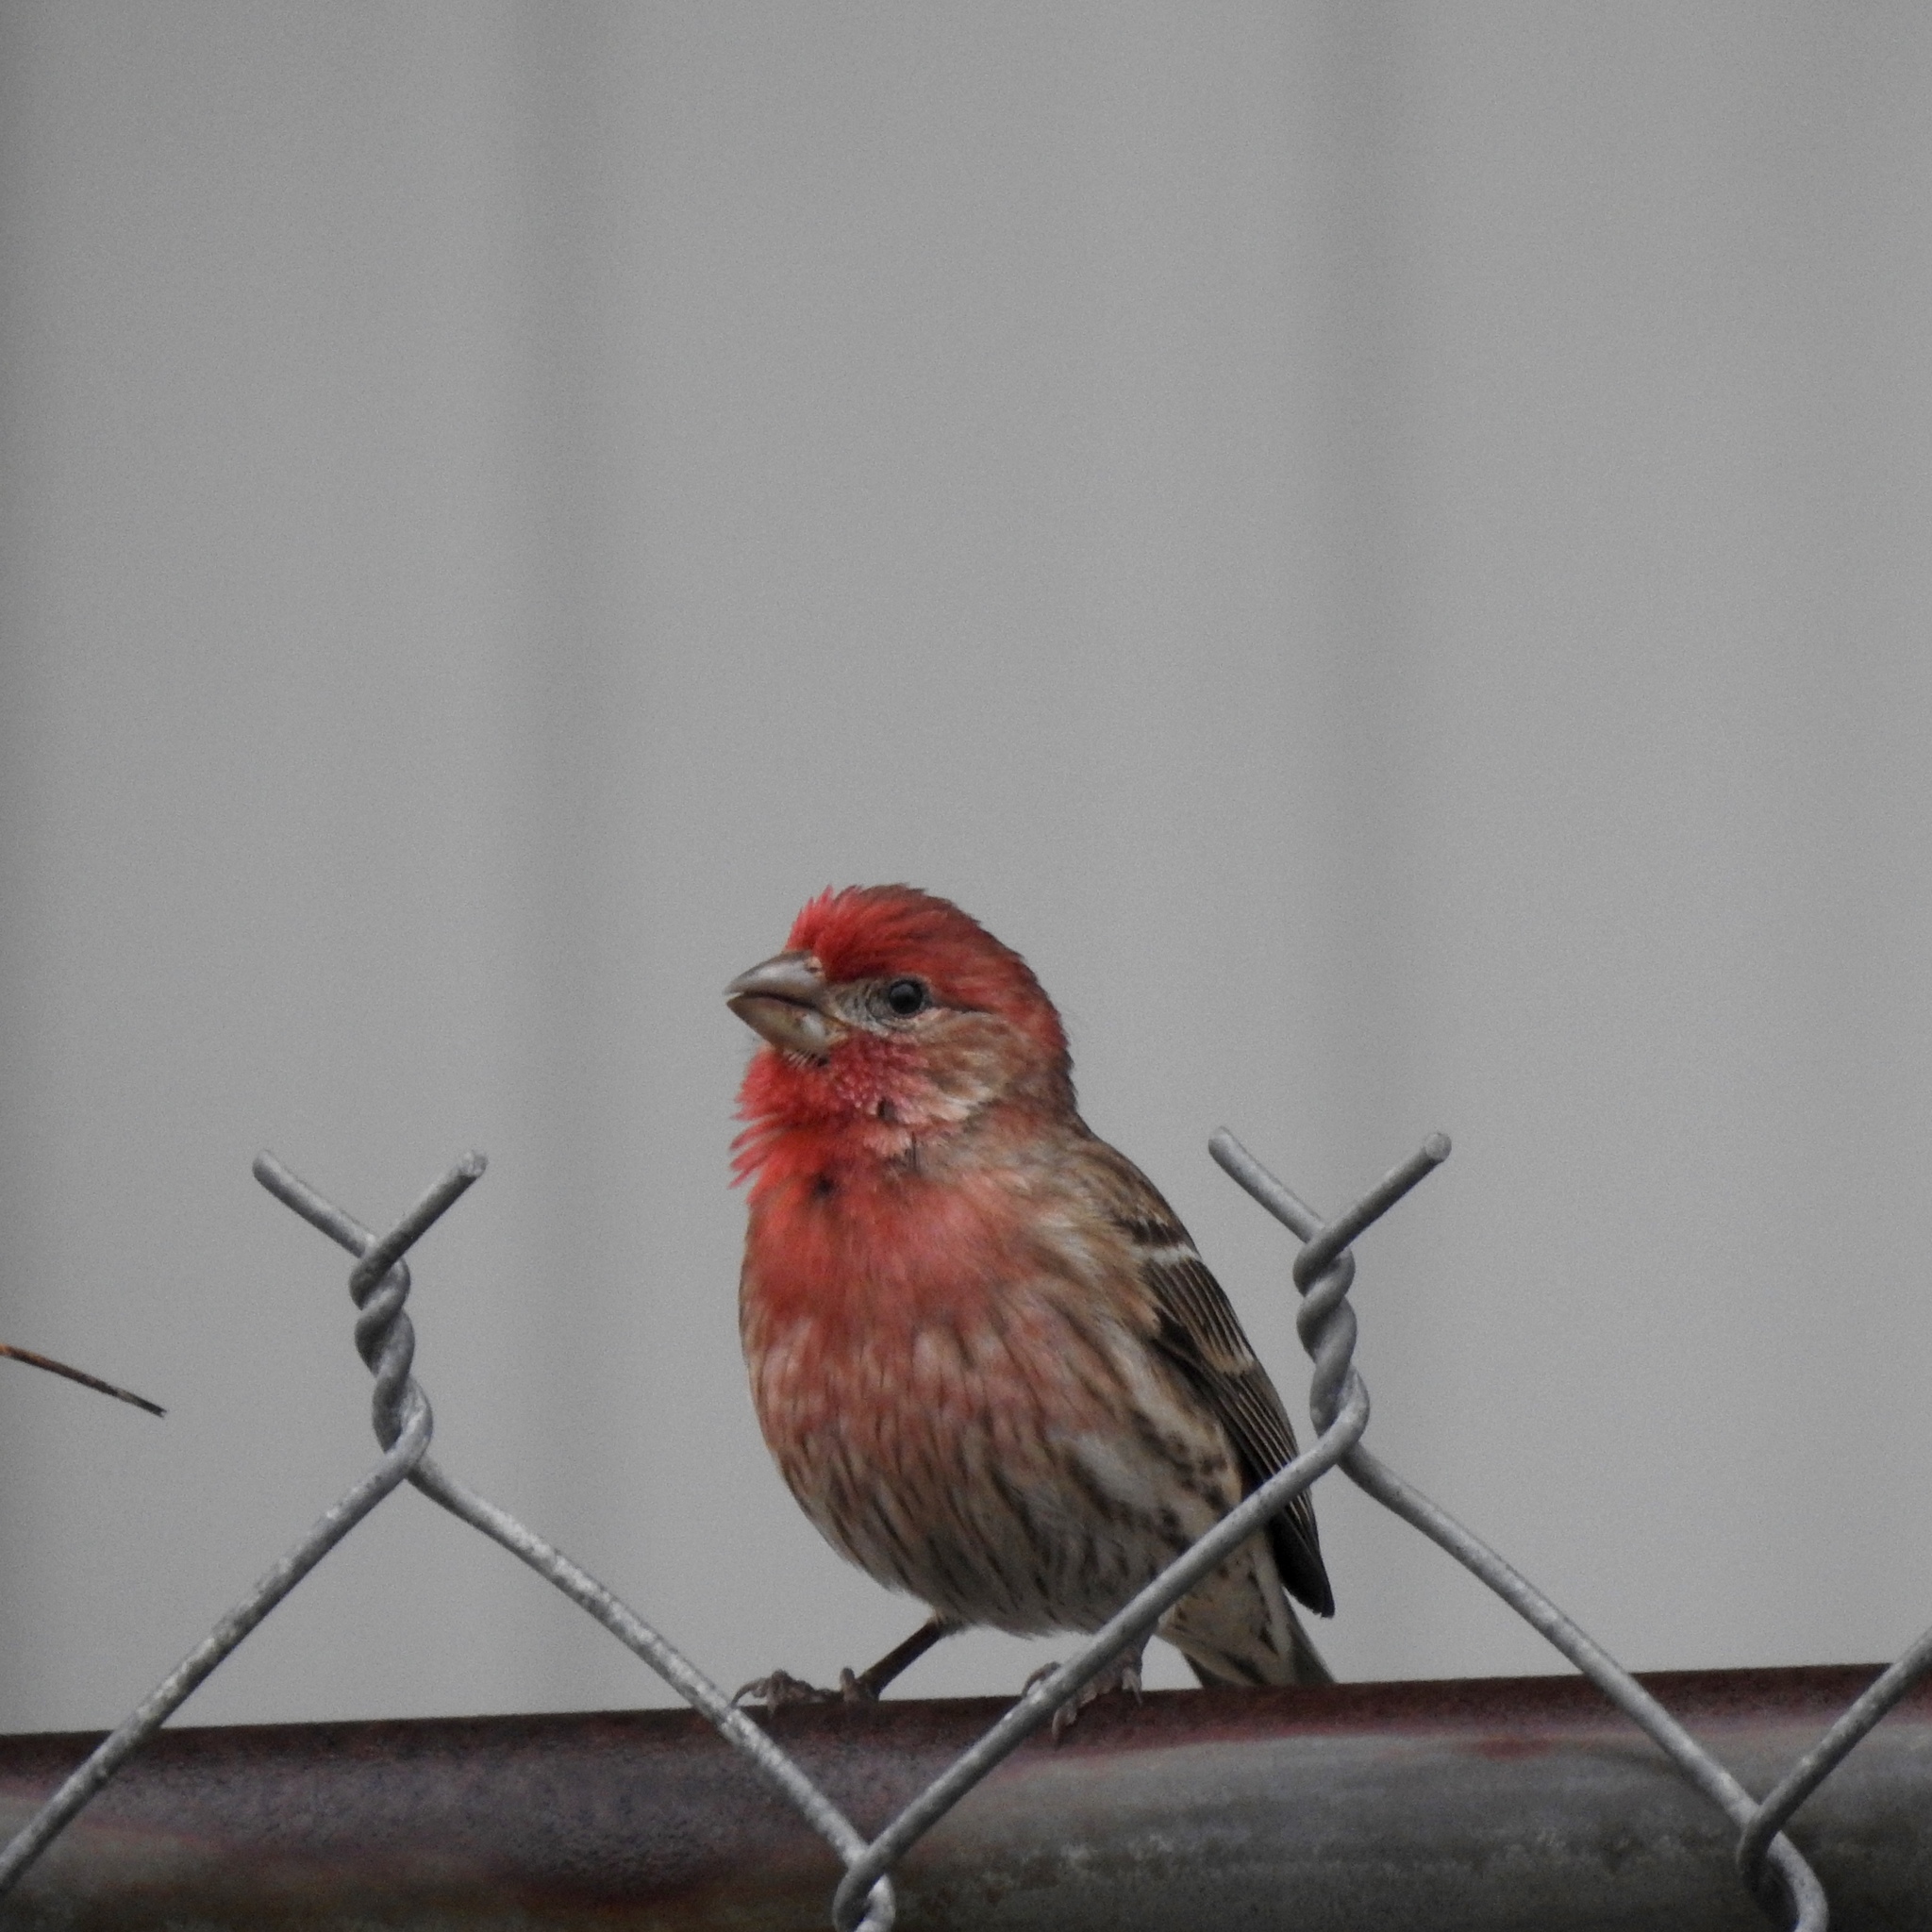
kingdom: Animalia
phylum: Chordata
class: Aves
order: Passeriformes
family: Fringillidae
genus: Haemorhous
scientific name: Haemorhous mexicanus
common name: House finch
